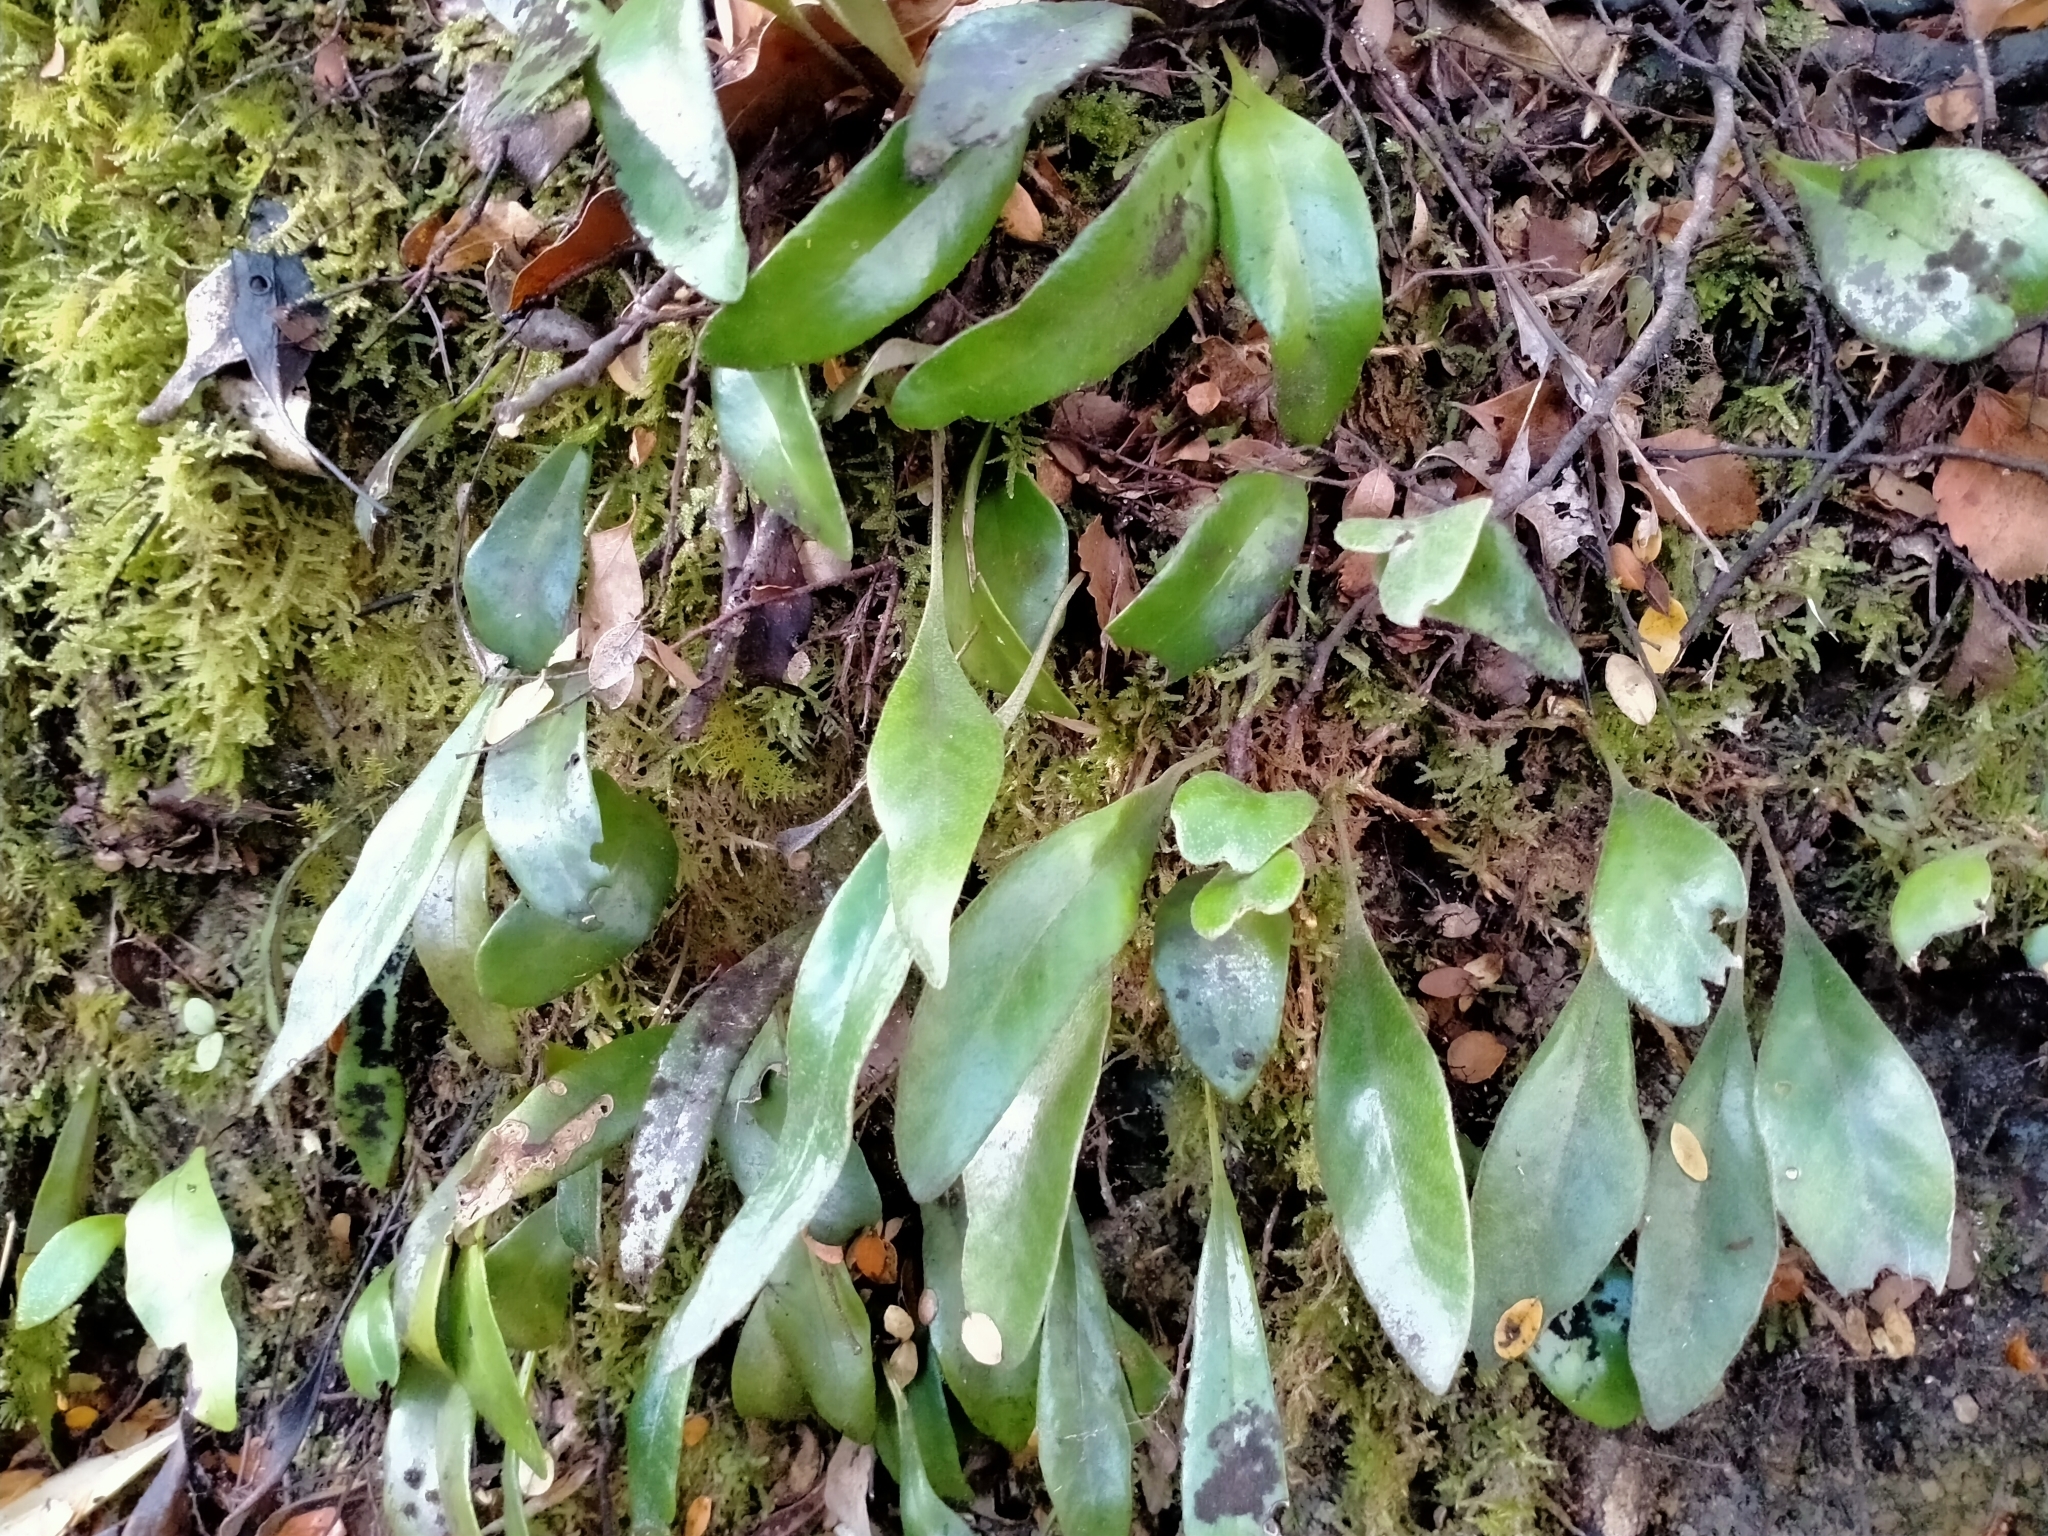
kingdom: Plantae
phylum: Tracheophyta
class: Polypodiopsida
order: Polypodiales
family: Polypodiaceae
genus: Pyrrosia
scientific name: Pyrrosia eleagnifolia
